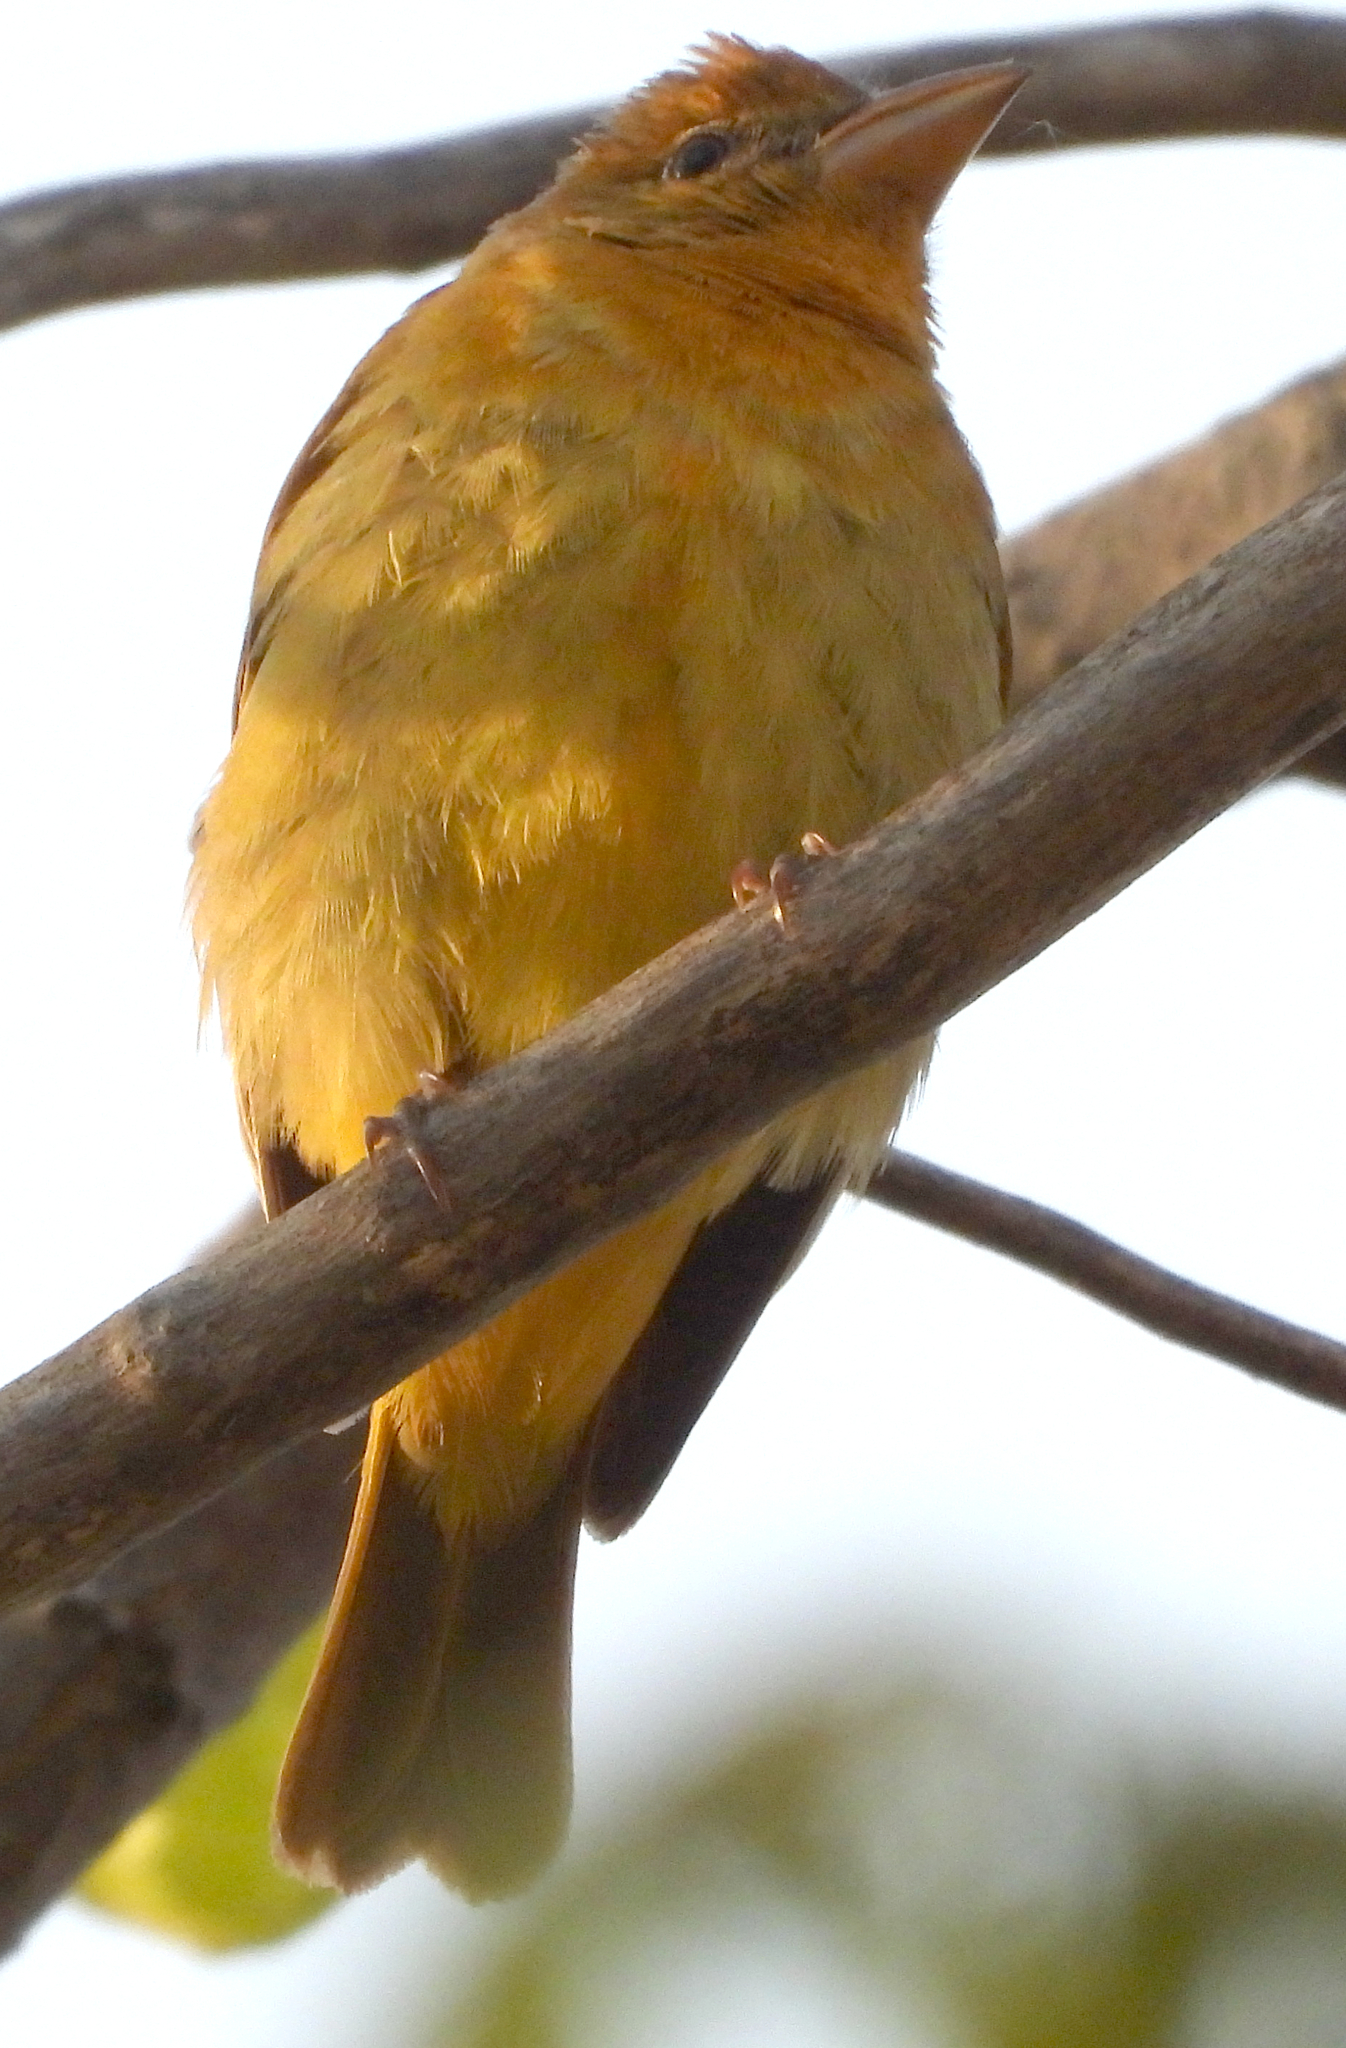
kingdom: Animalia
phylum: Chordata
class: Aves
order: Passeriformes
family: Cardinalidae
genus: Piranga
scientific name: Piranga rubra
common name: Summer tanager
